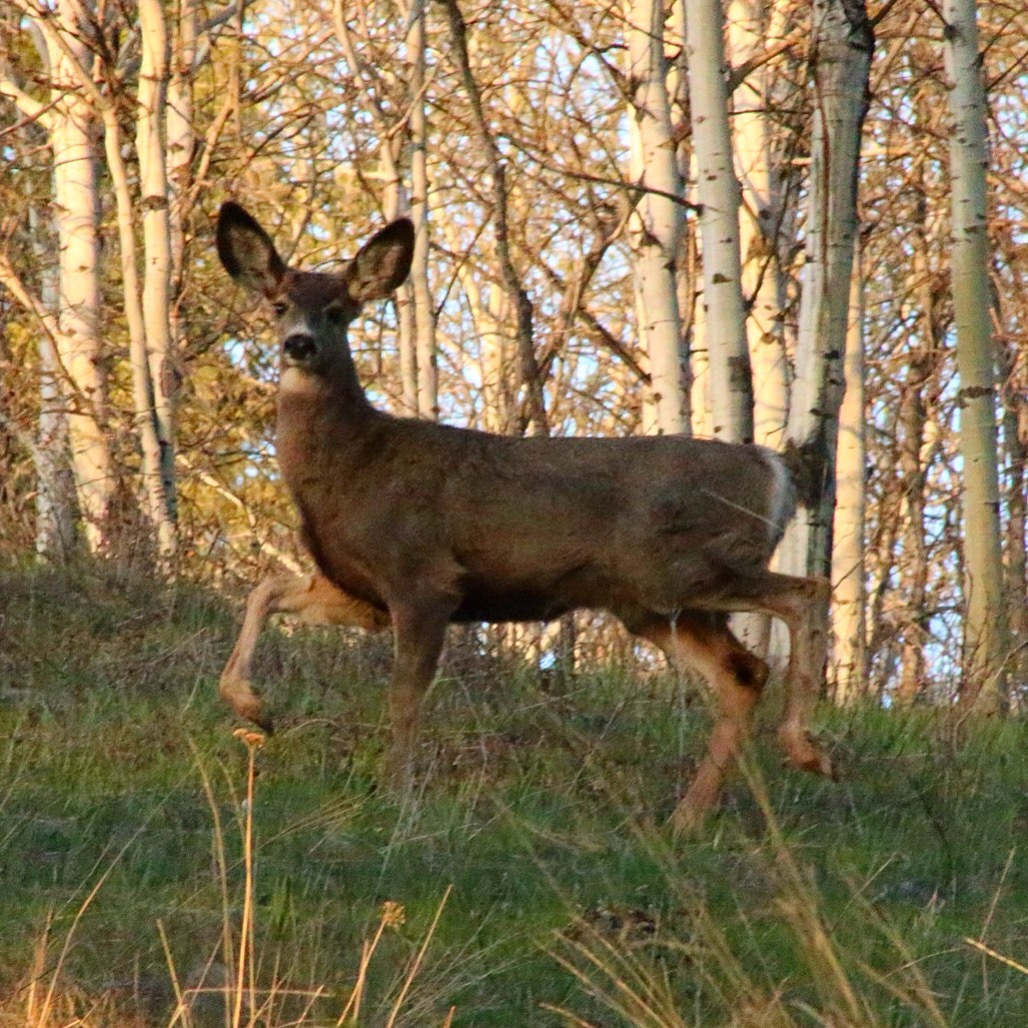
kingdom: Animalia
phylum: Chordata
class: Mammalia
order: Artiodactyla
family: Cervidae
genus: Odocoileus
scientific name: Odocoileus hemionus
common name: Mule deer
